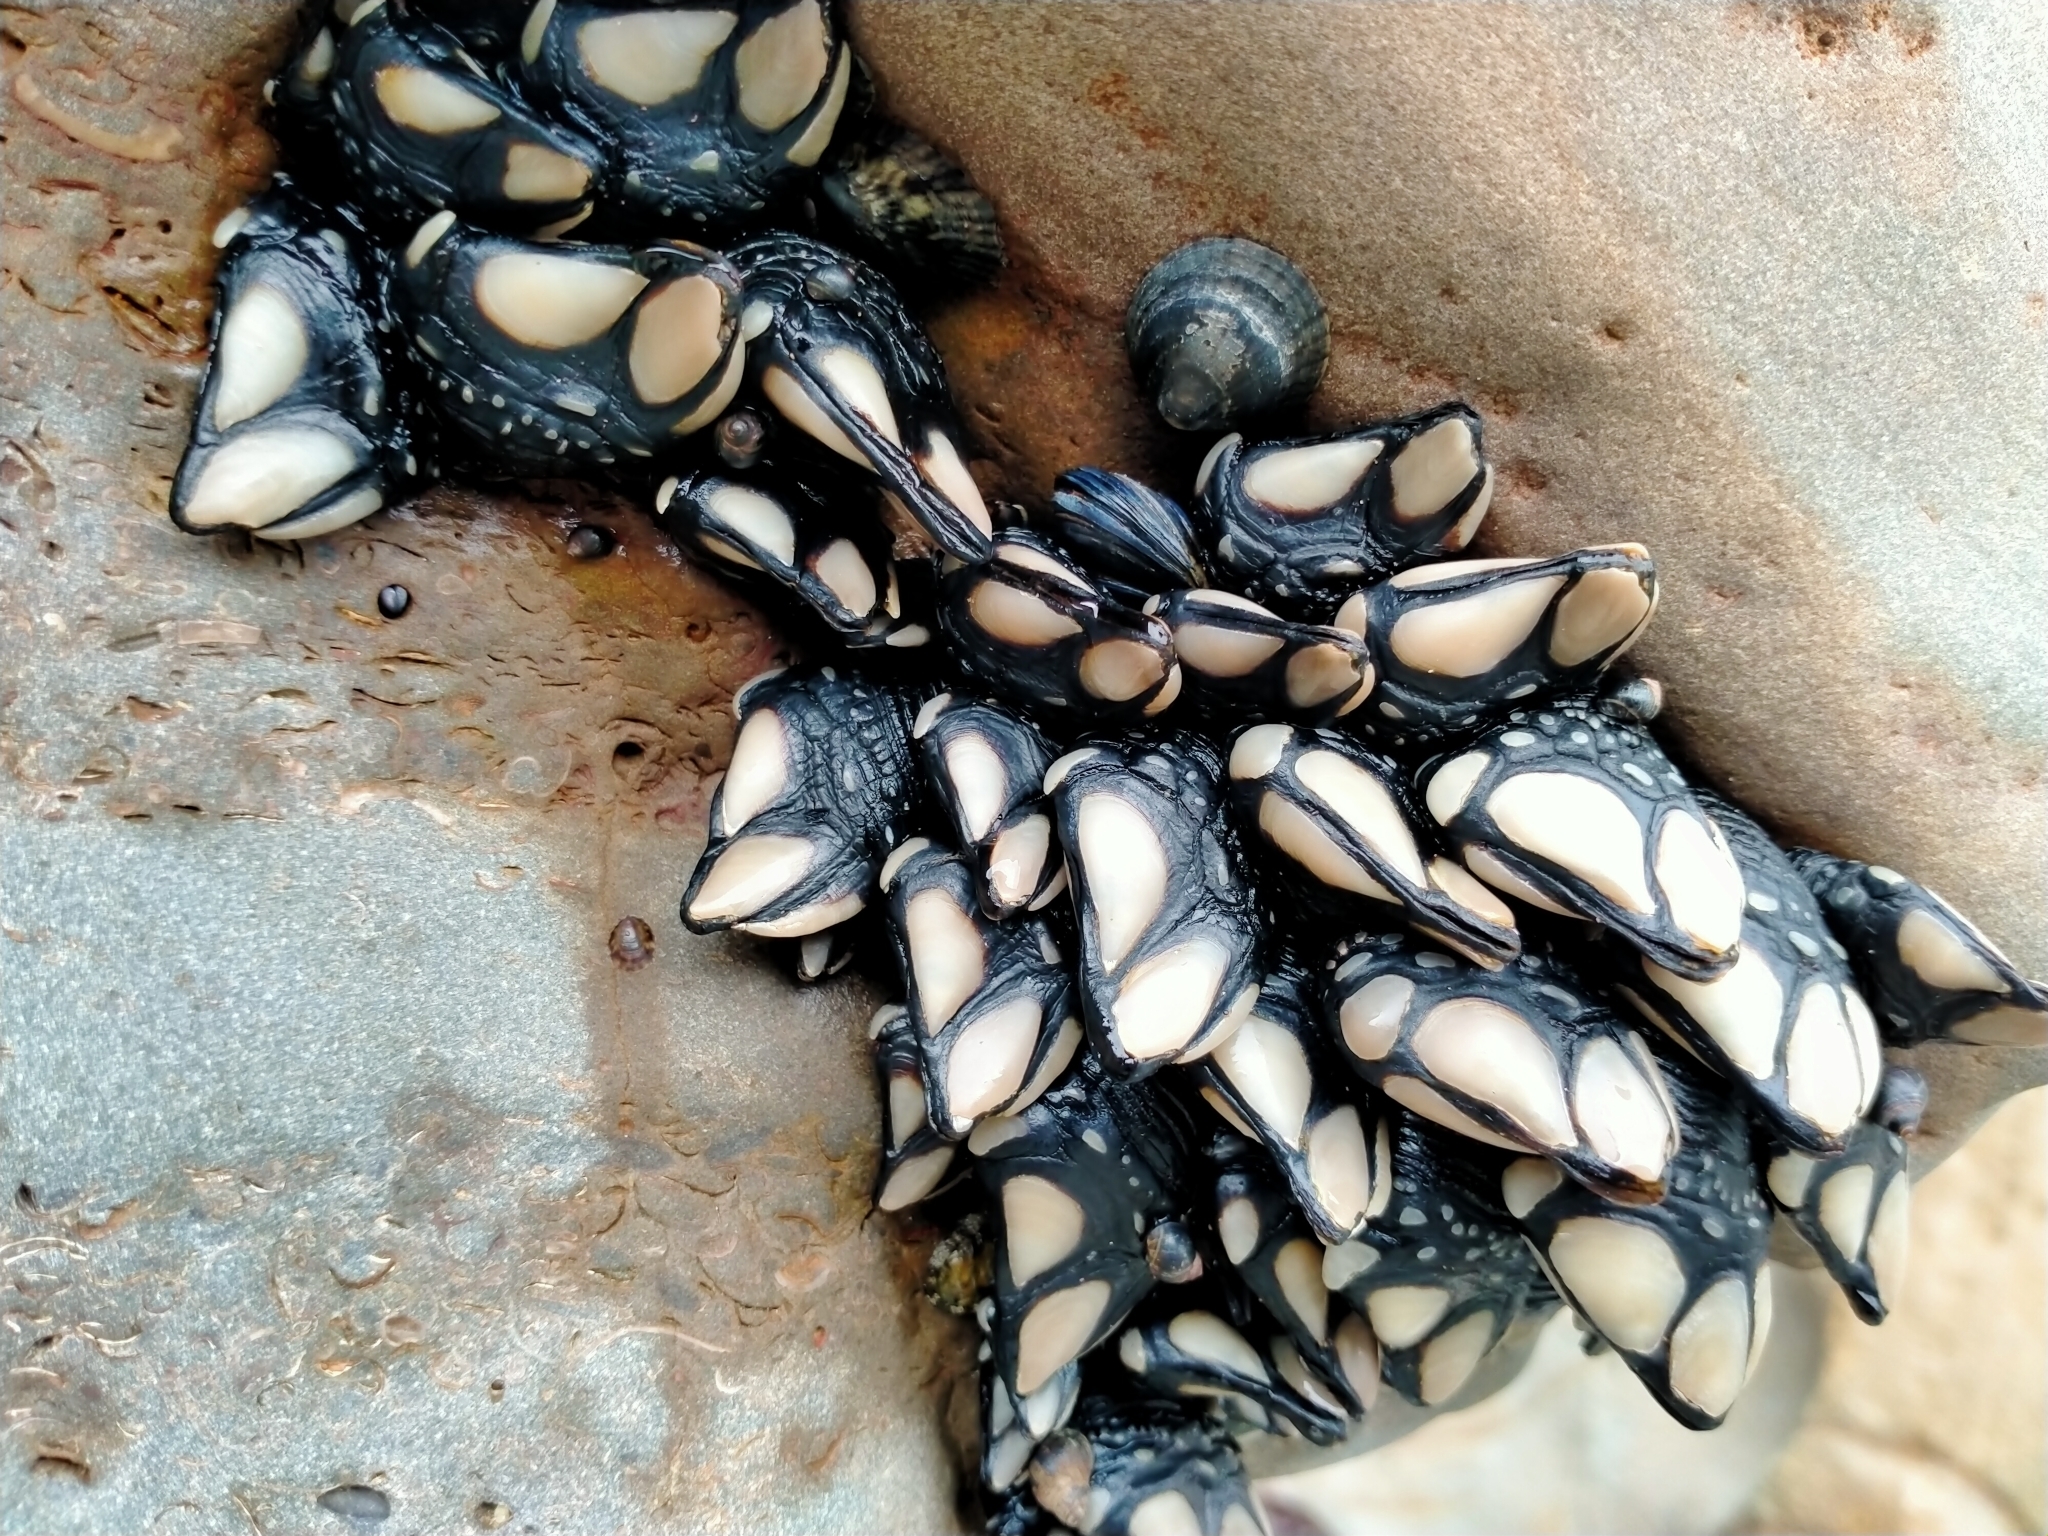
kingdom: Animalia
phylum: Arthropoda
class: Maxillopoda
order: Pedunculata
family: Calanticidae
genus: Calantica
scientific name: Calantica spinosa
